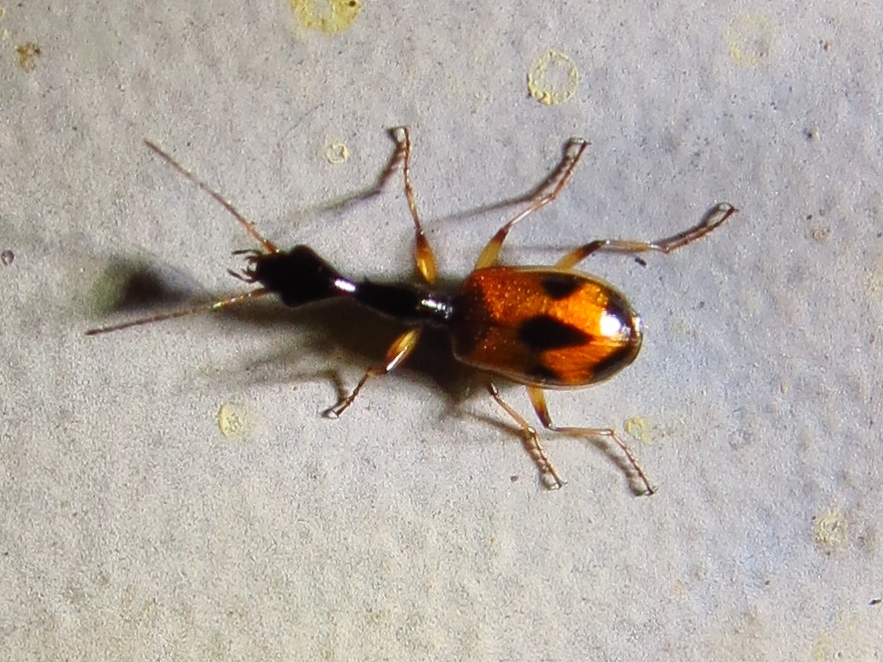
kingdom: Animalia
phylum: Arthropoda
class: Insecta
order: Coleoptera
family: Carabidae
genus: Colliuris
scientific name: Colliuris pensylvanica
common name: Long-necked ground beetle
